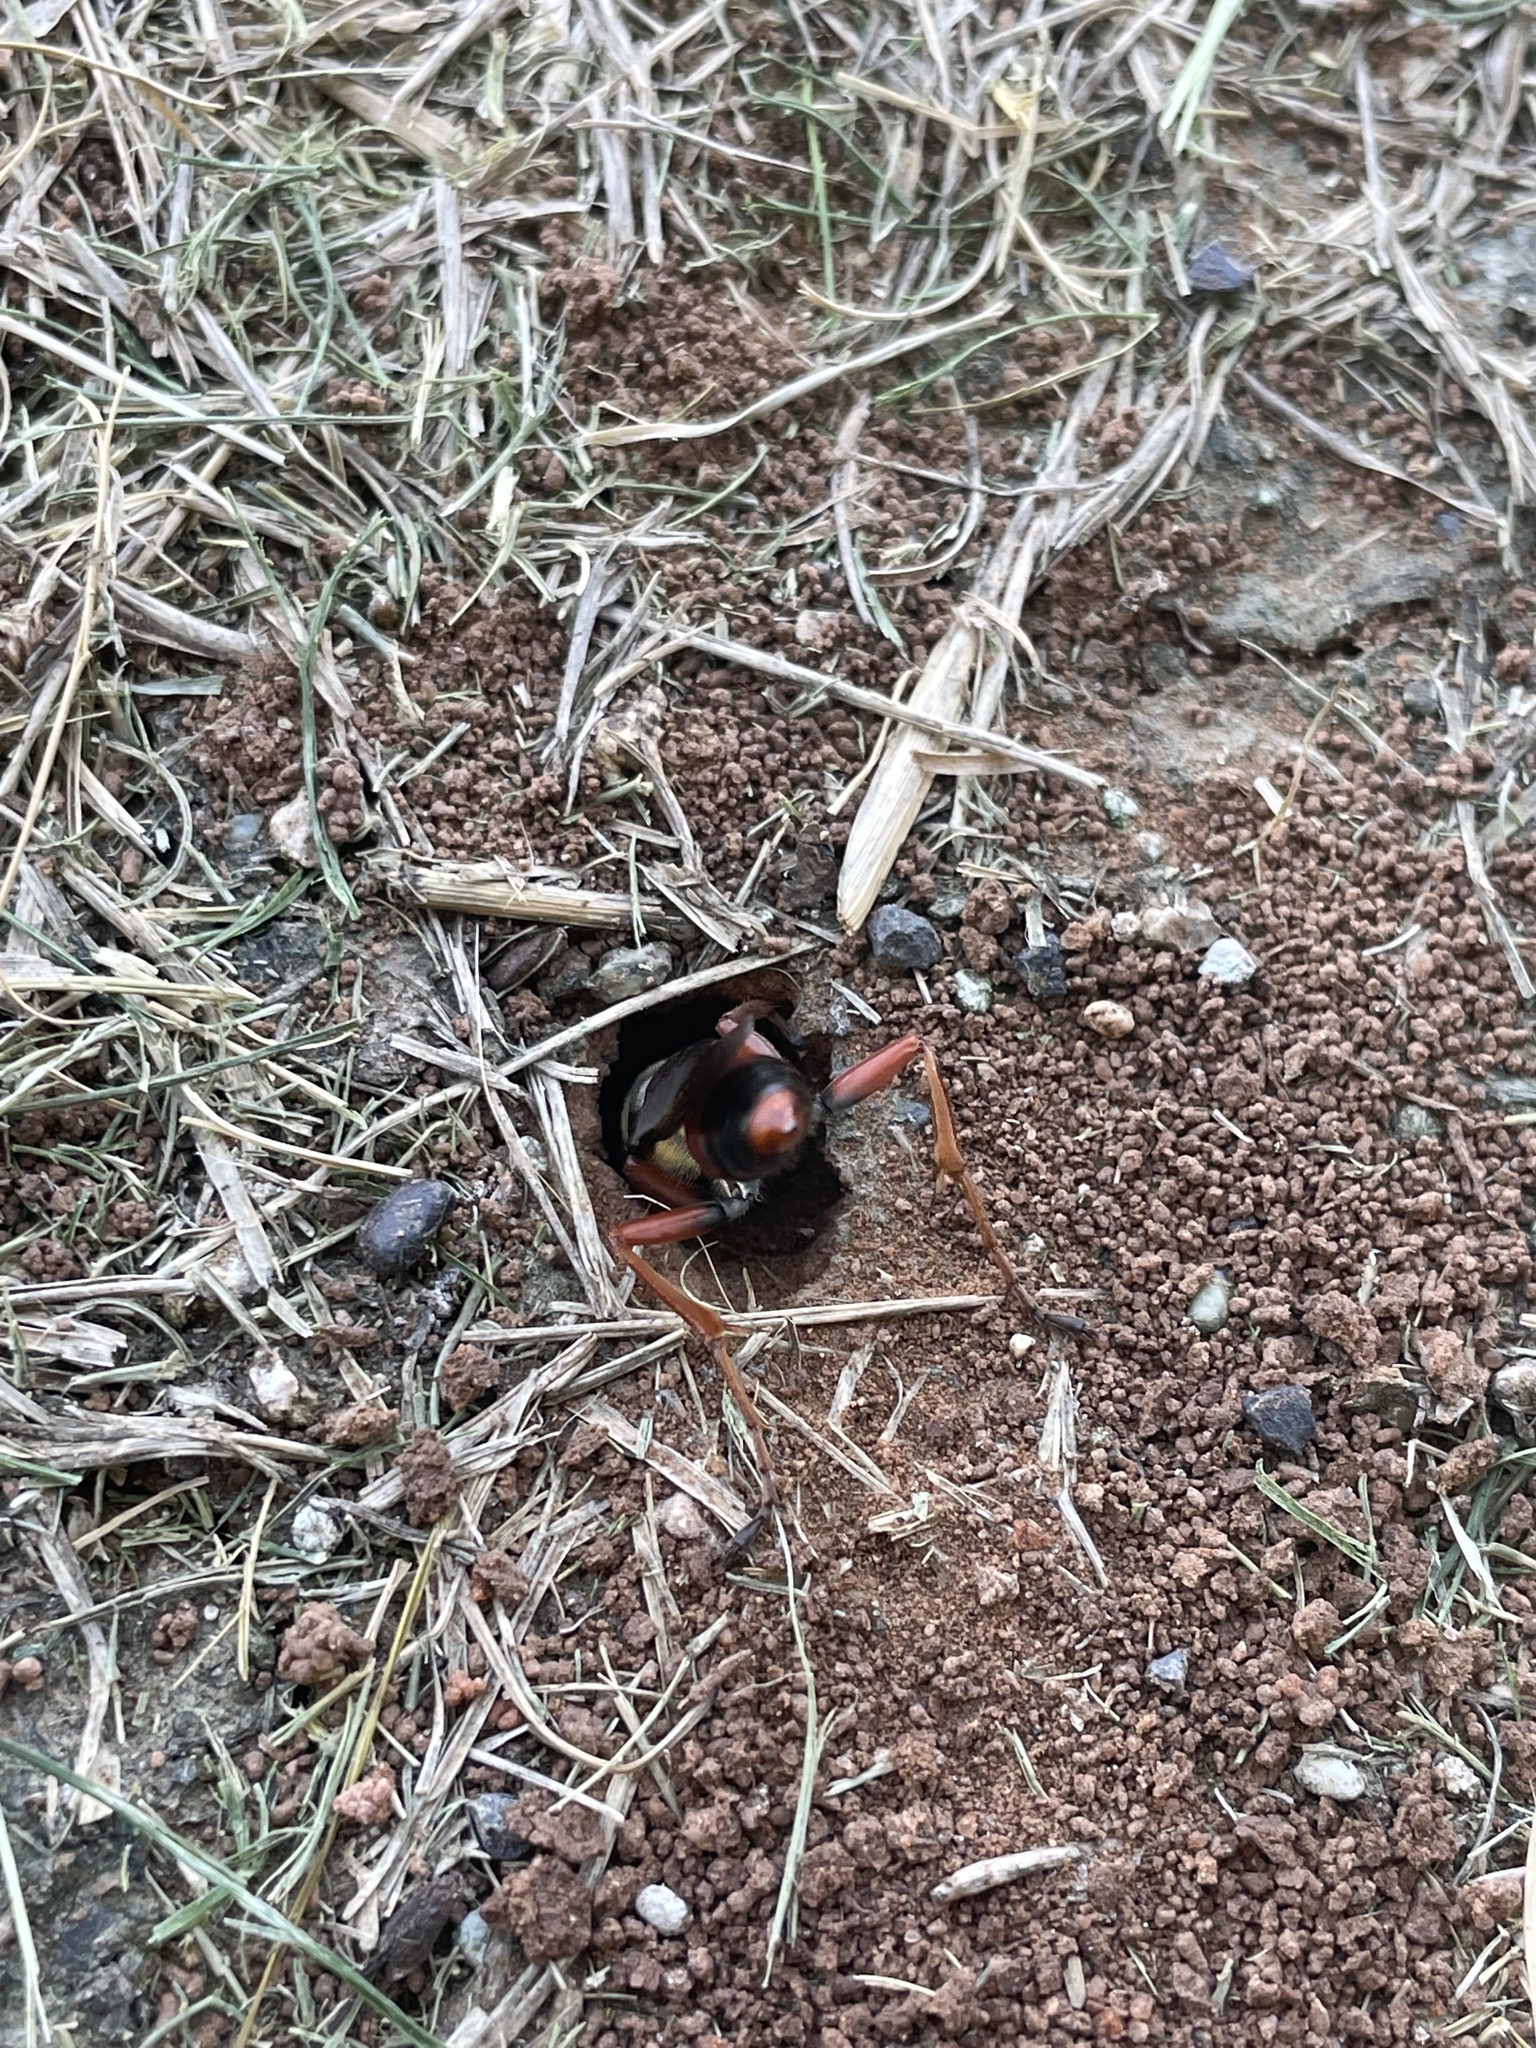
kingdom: Animalia
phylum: Arthropoda
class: Insecta
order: Hymenoptera
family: Sphecidae
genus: Sphex
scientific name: Sphex dorsalis
